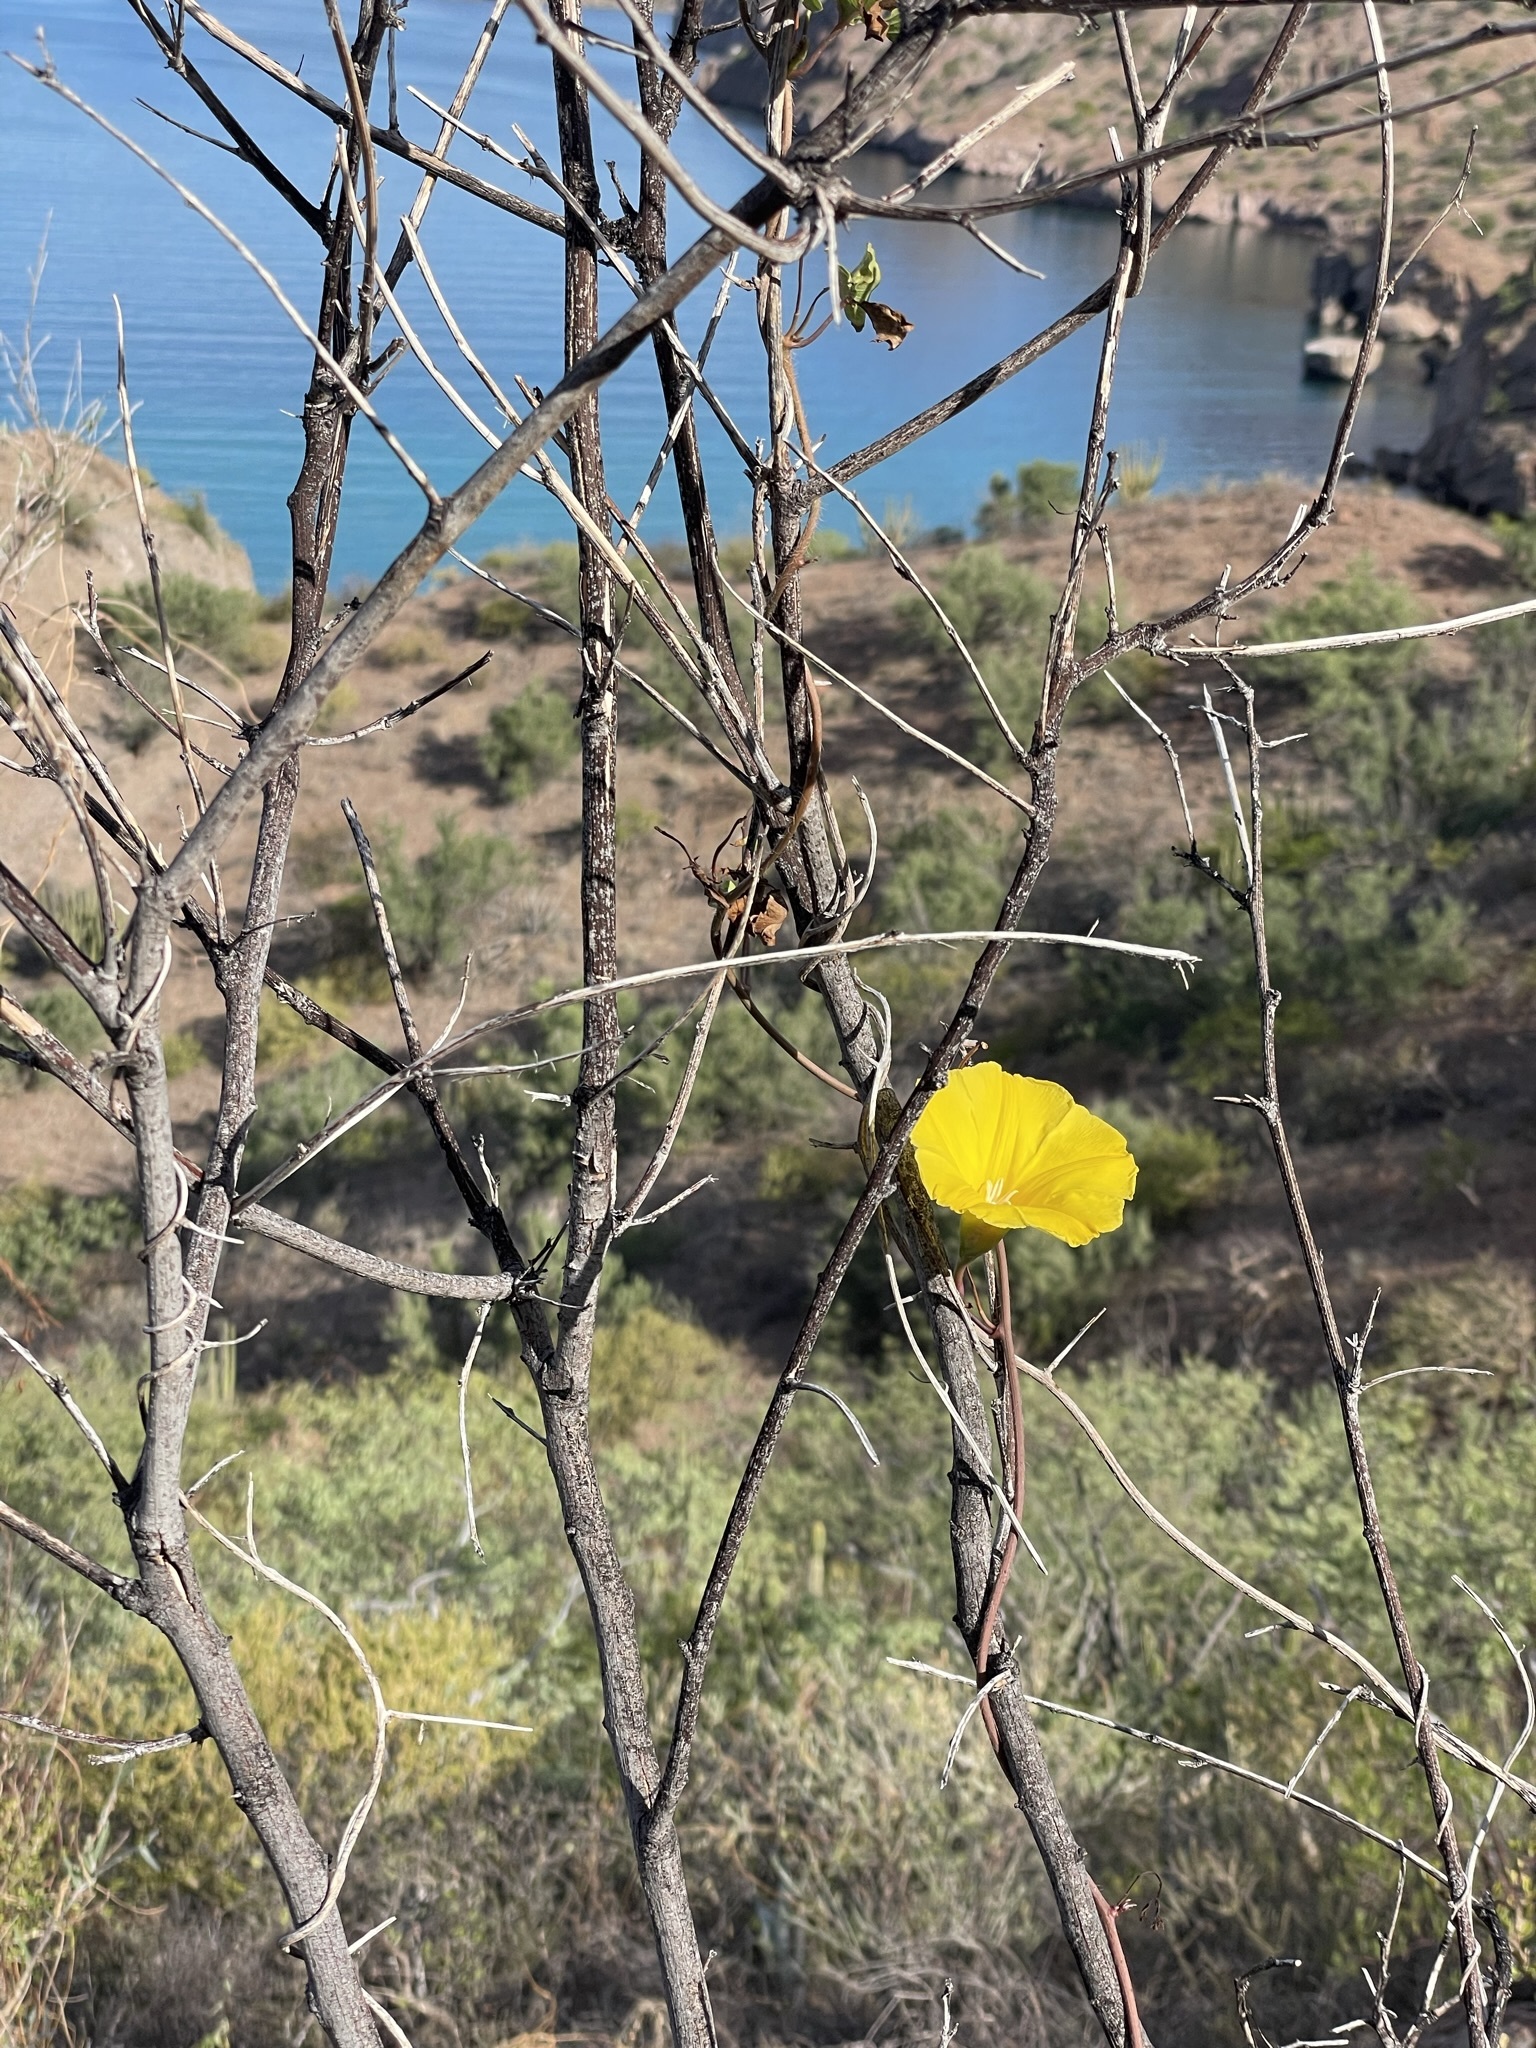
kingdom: Plantae
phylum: Tracheophyta
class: Magnoliopsida
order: Solanales
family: Convolvulaceae
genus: Distimake
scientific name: Distimake aureus
